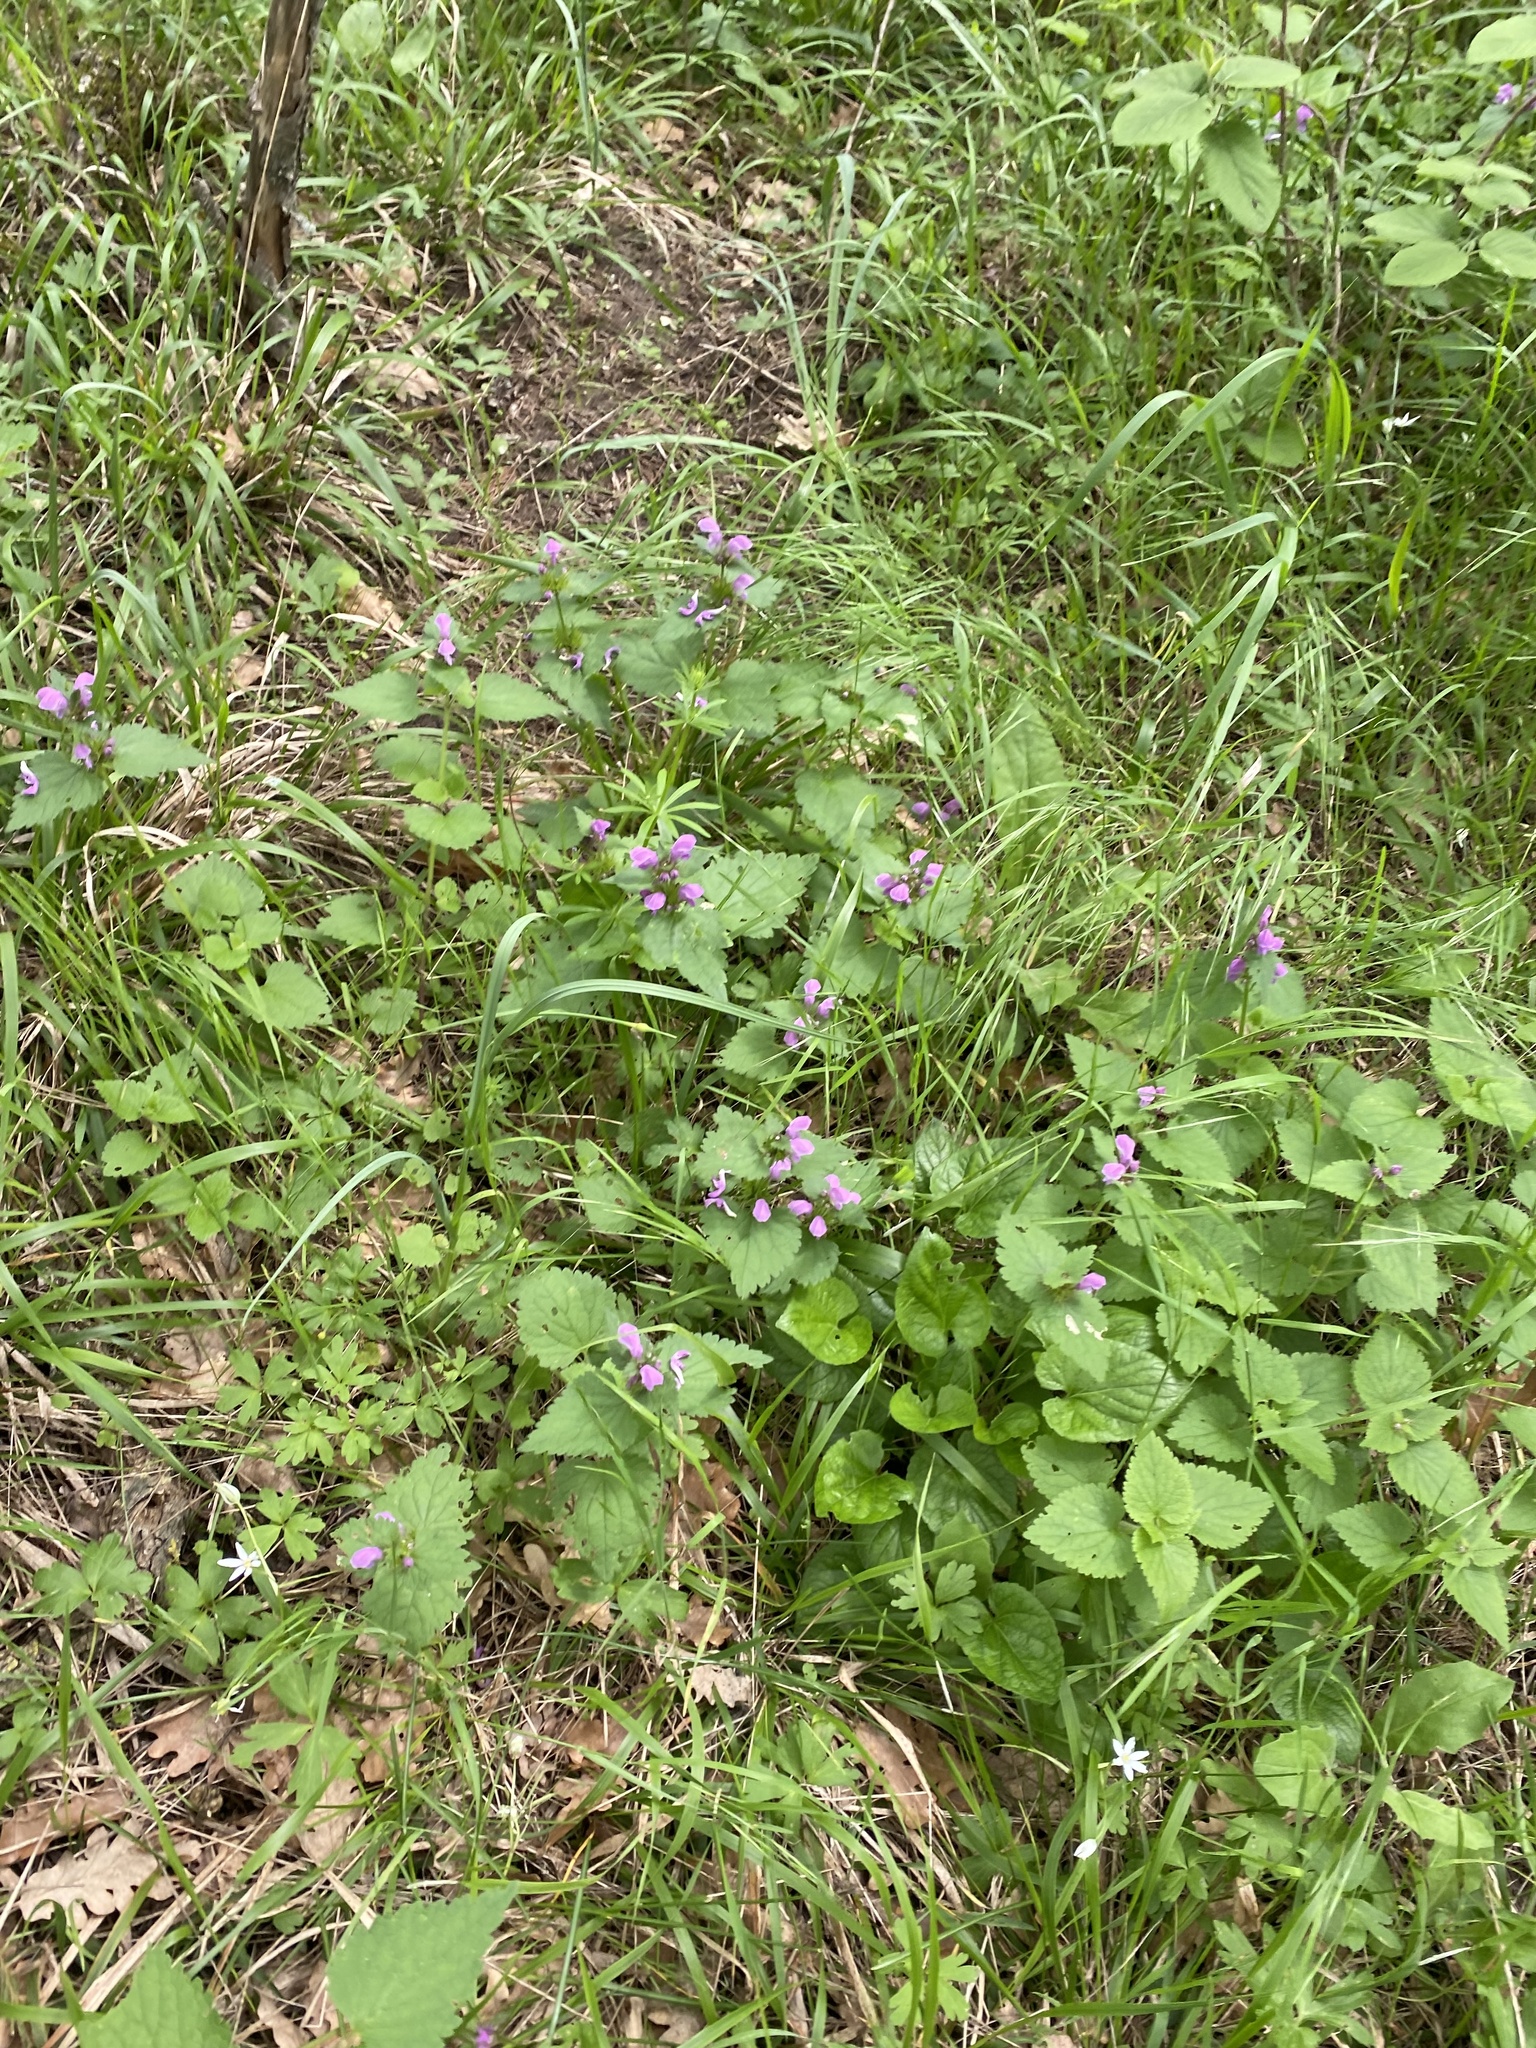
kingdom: Plantae
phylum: Tracheophyta
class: Magnoliopsida
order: Lamiales
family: Lamiaceae
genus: Lamium
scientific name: Lamium maculatum
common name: Spotted dead-nettle
